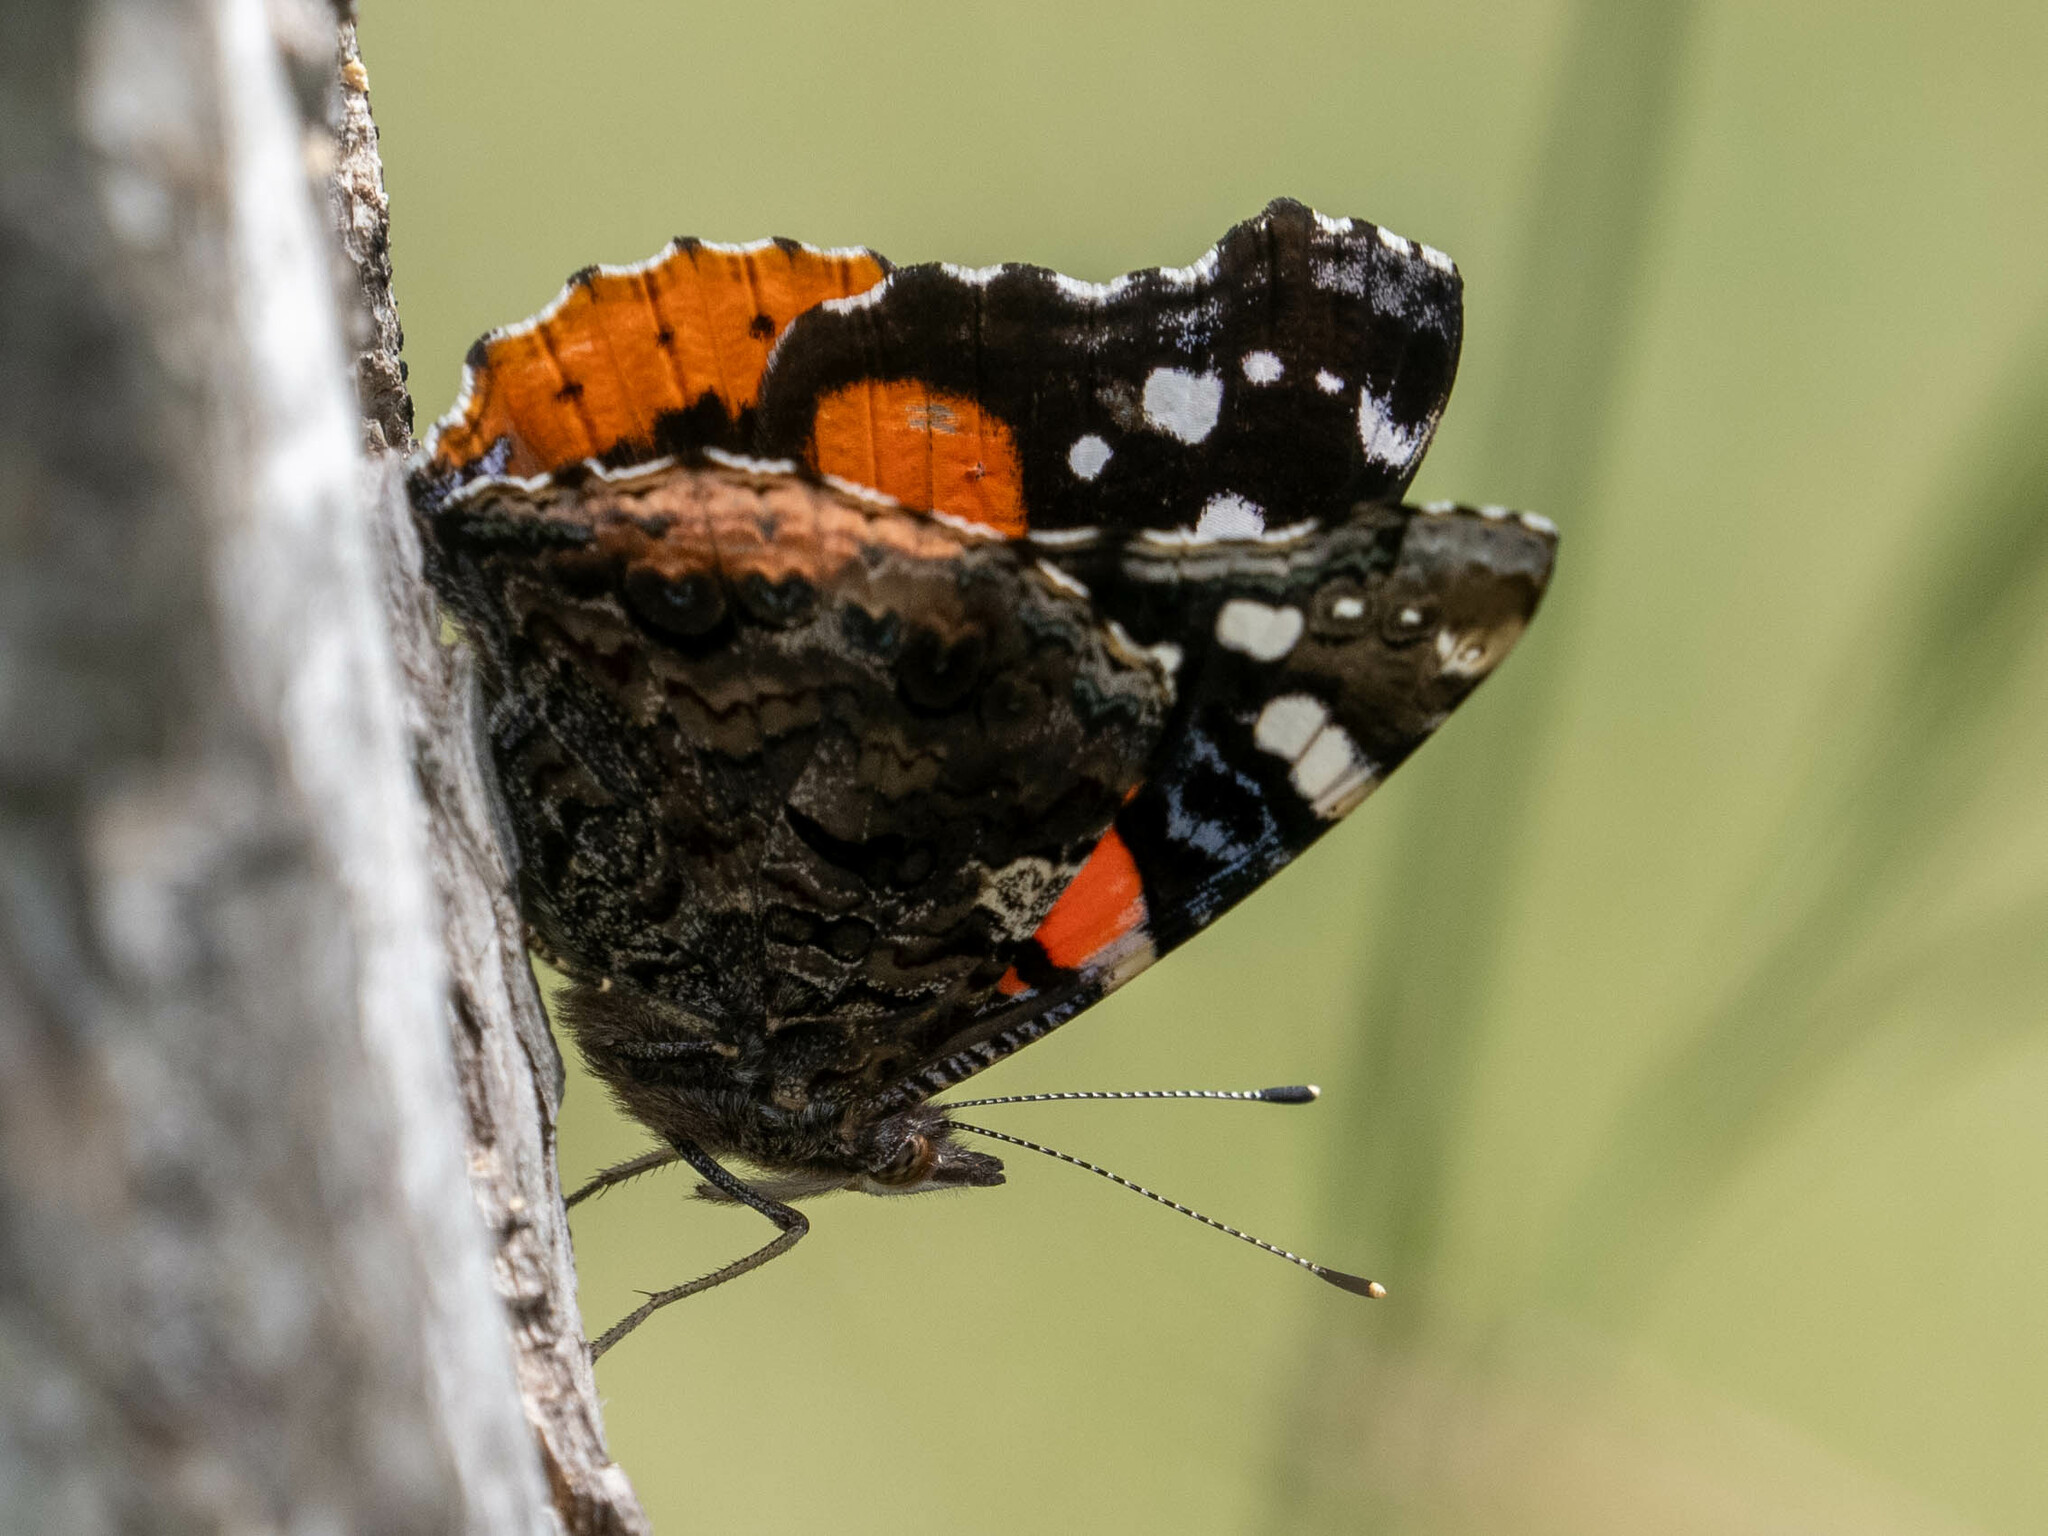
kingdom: Animalia
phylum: Arthropoda
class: Insecta
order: Lepidoptera
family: Nymphalidae
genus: Vanessa
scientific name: Vanessa atalanta
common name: Red admiral
